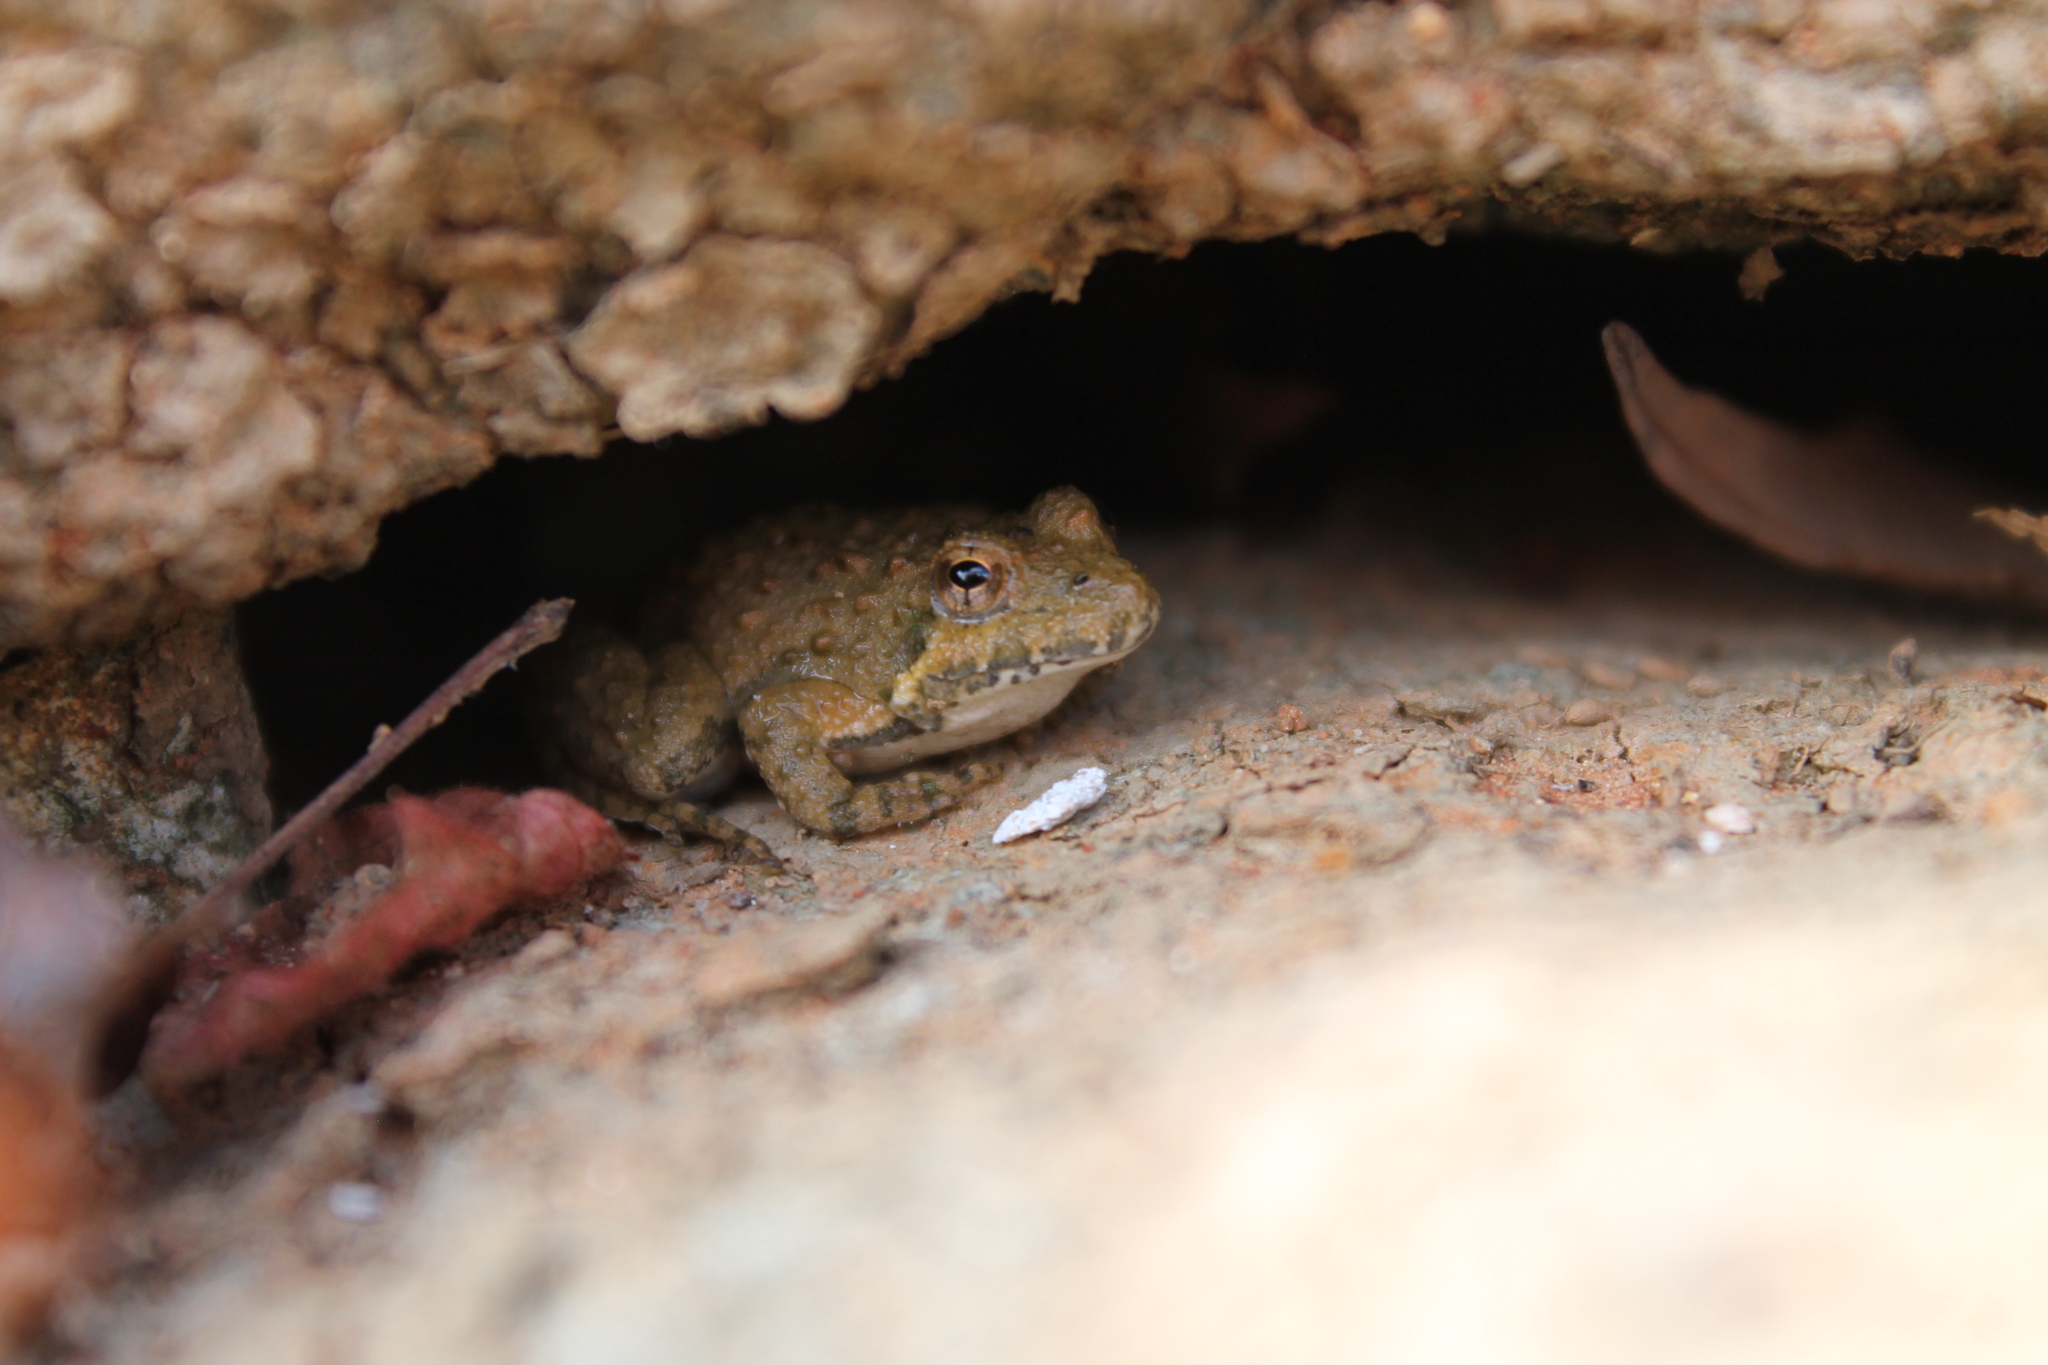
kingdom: Animalia
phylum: Chordata
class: Amphibia
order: Anura
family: Hylidae
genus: Acris
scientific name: Acris crepitans
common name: Northern cricket frog
